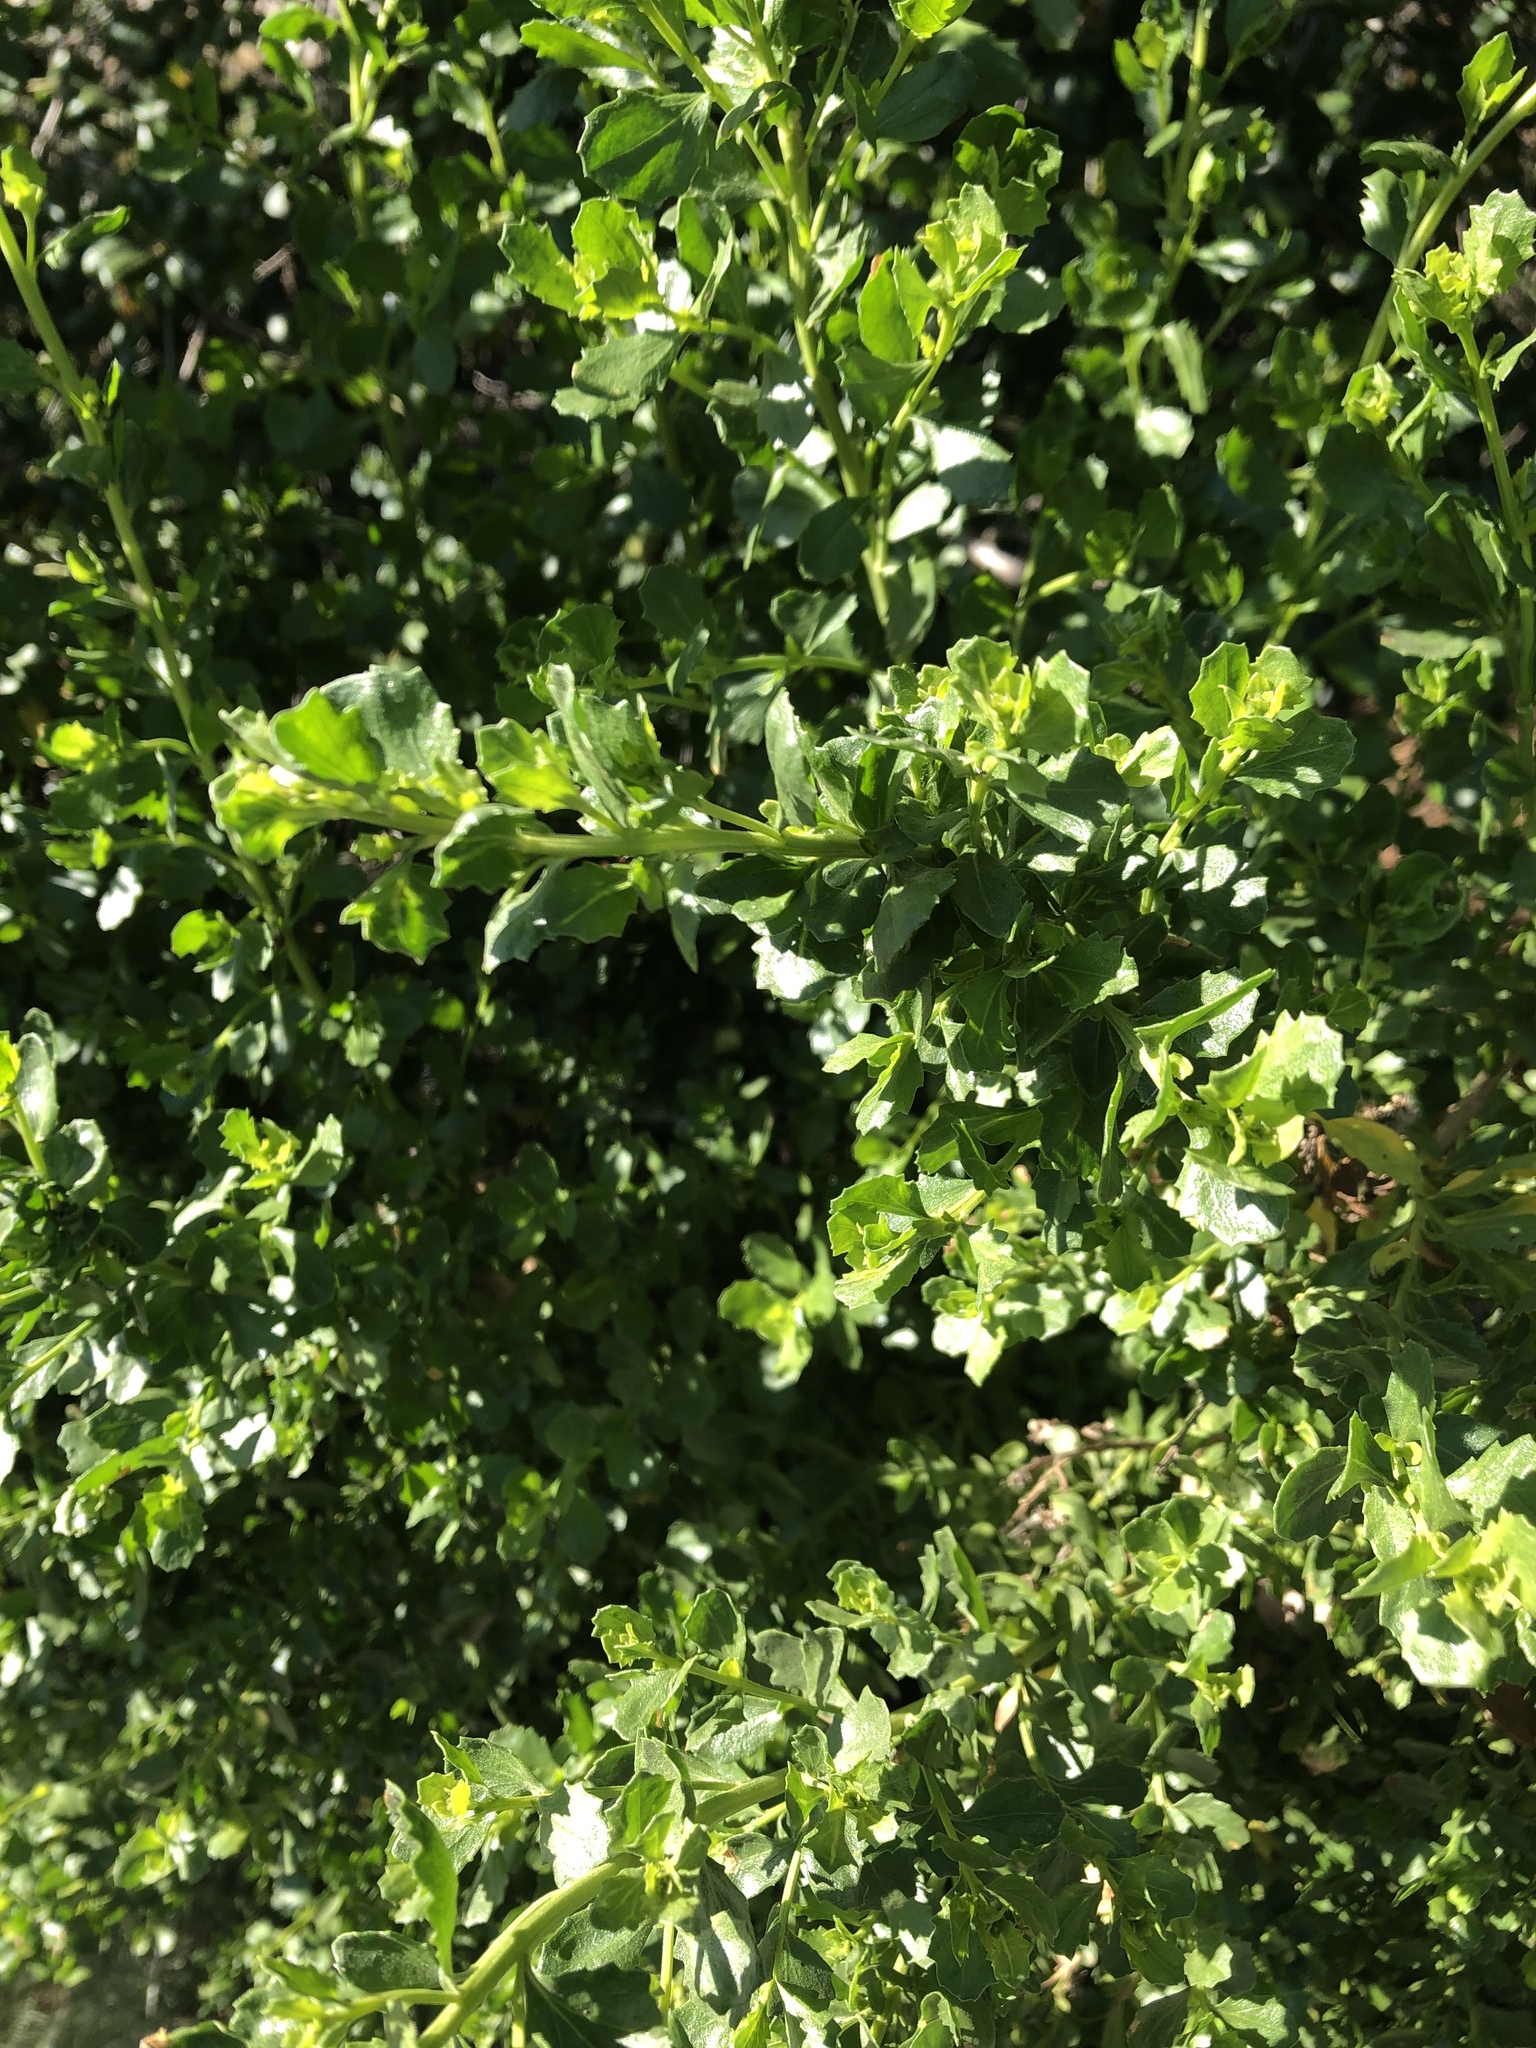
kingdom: Plantae
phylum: Tracheophyta
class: Magnoliopsida
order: Asterales
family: Asteraceae
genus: Baccharis
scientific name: Baccharis pilularis
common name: Coyotebrush
